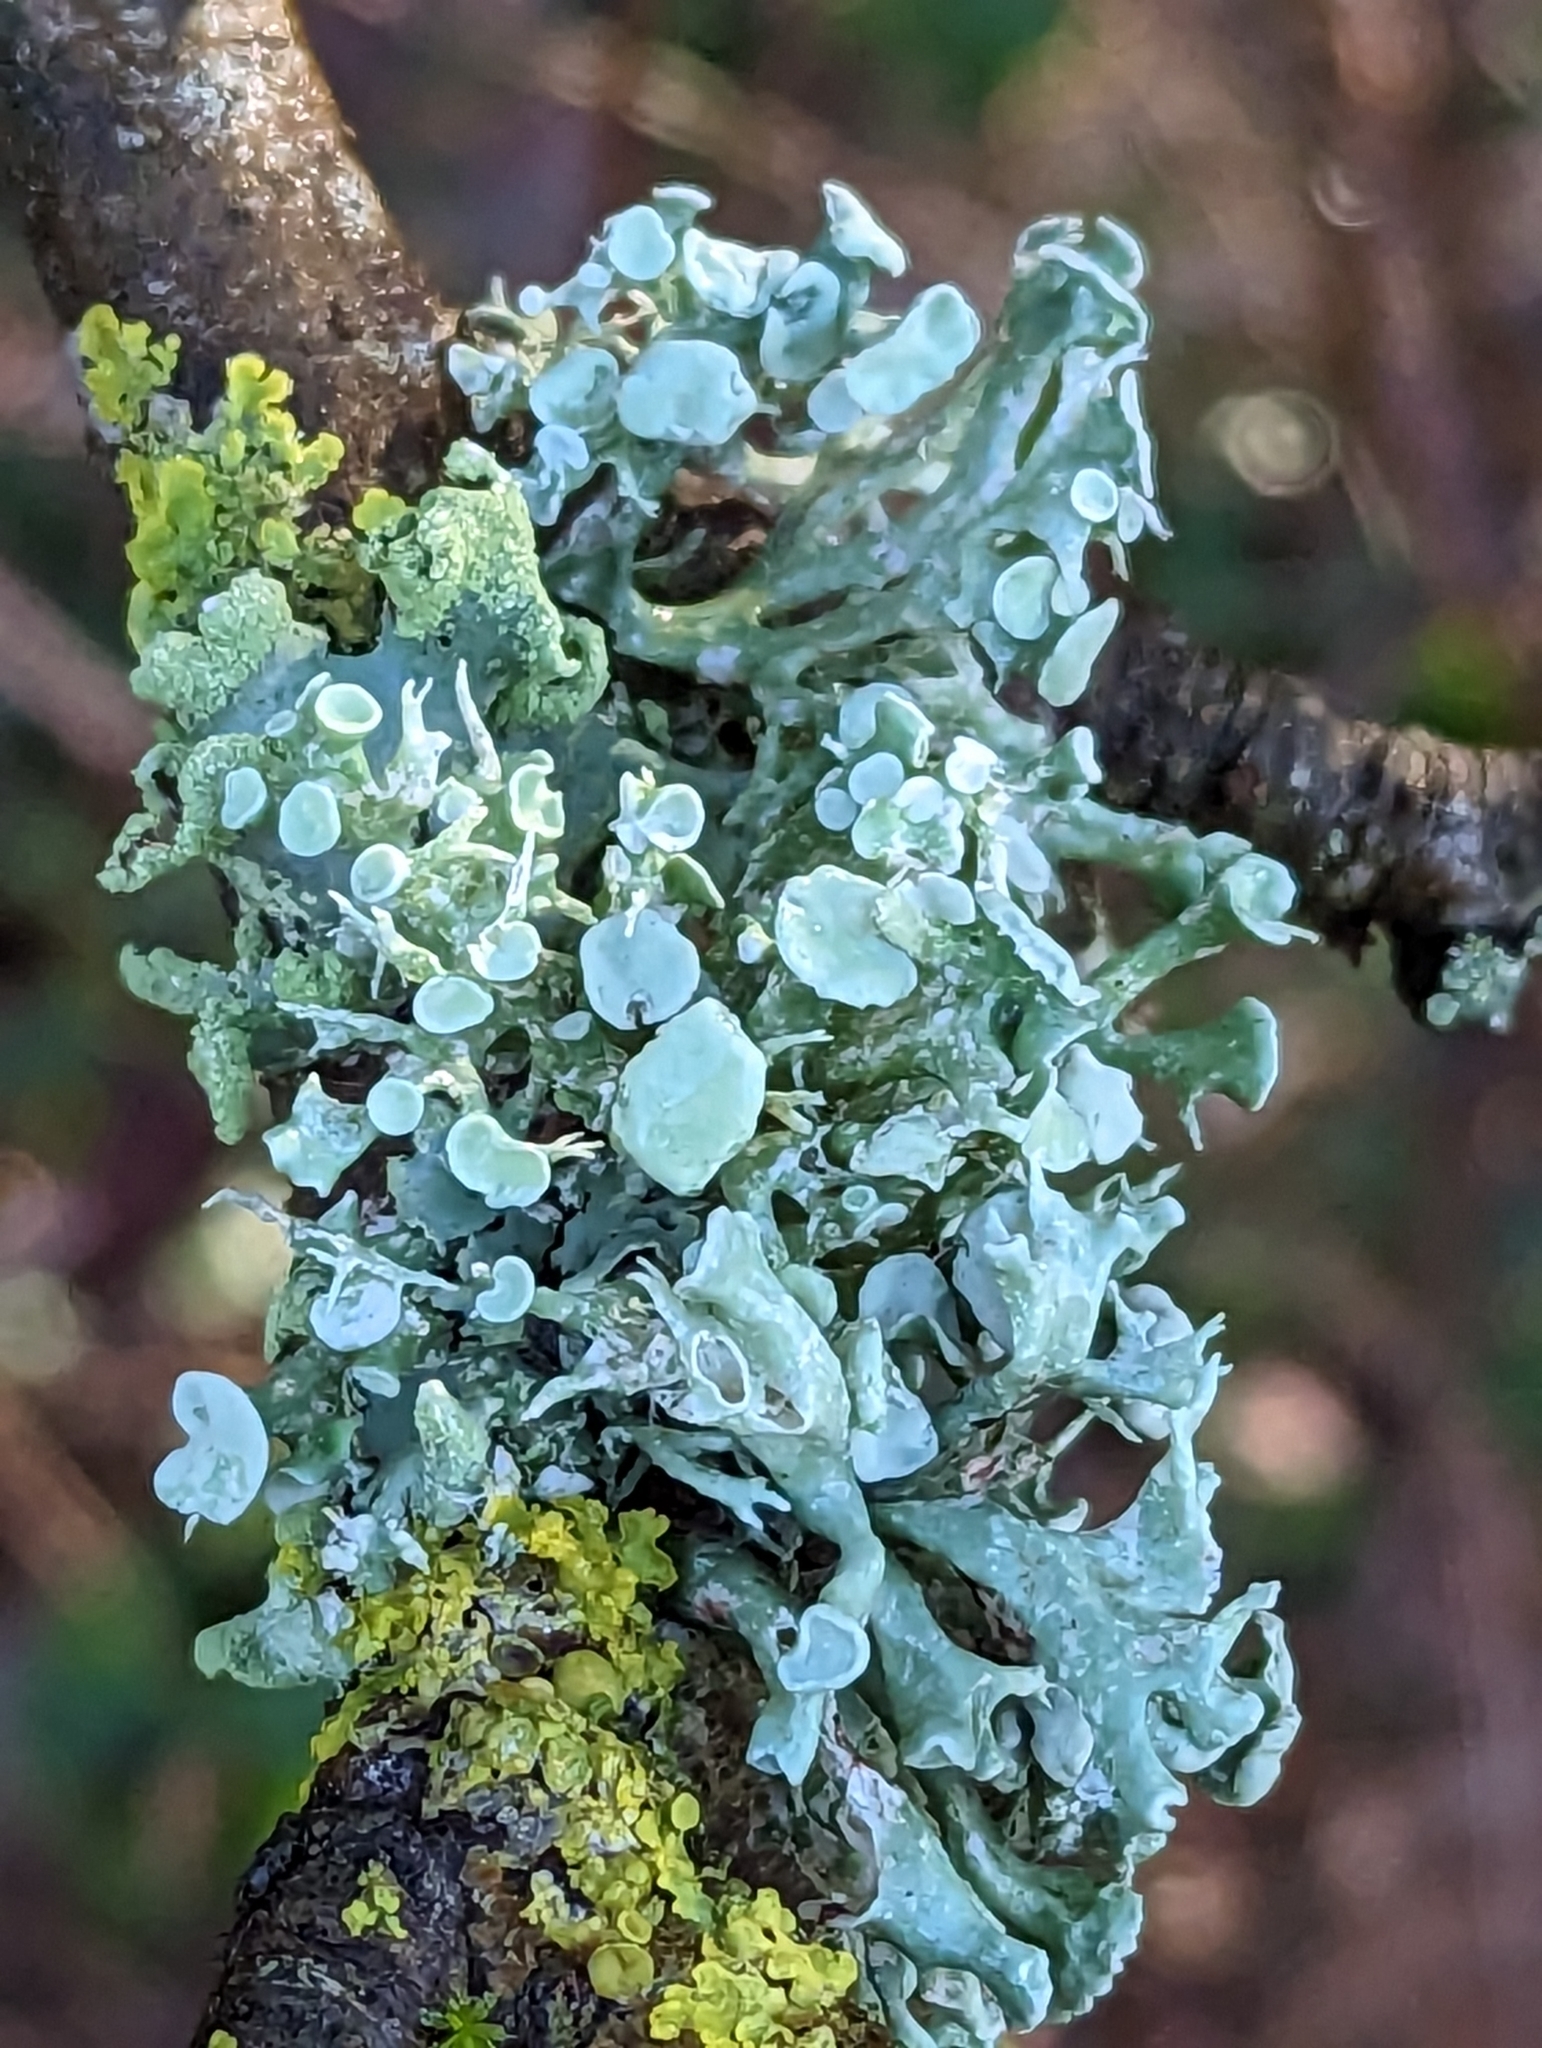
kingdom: Fungi
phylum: Ascomycota
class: Lecanoromycetes
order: Lecanorales
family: Ramalinaceae
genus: Ramalina
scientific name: Ramalina fastigiata
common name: Dotted ribbon lichen
